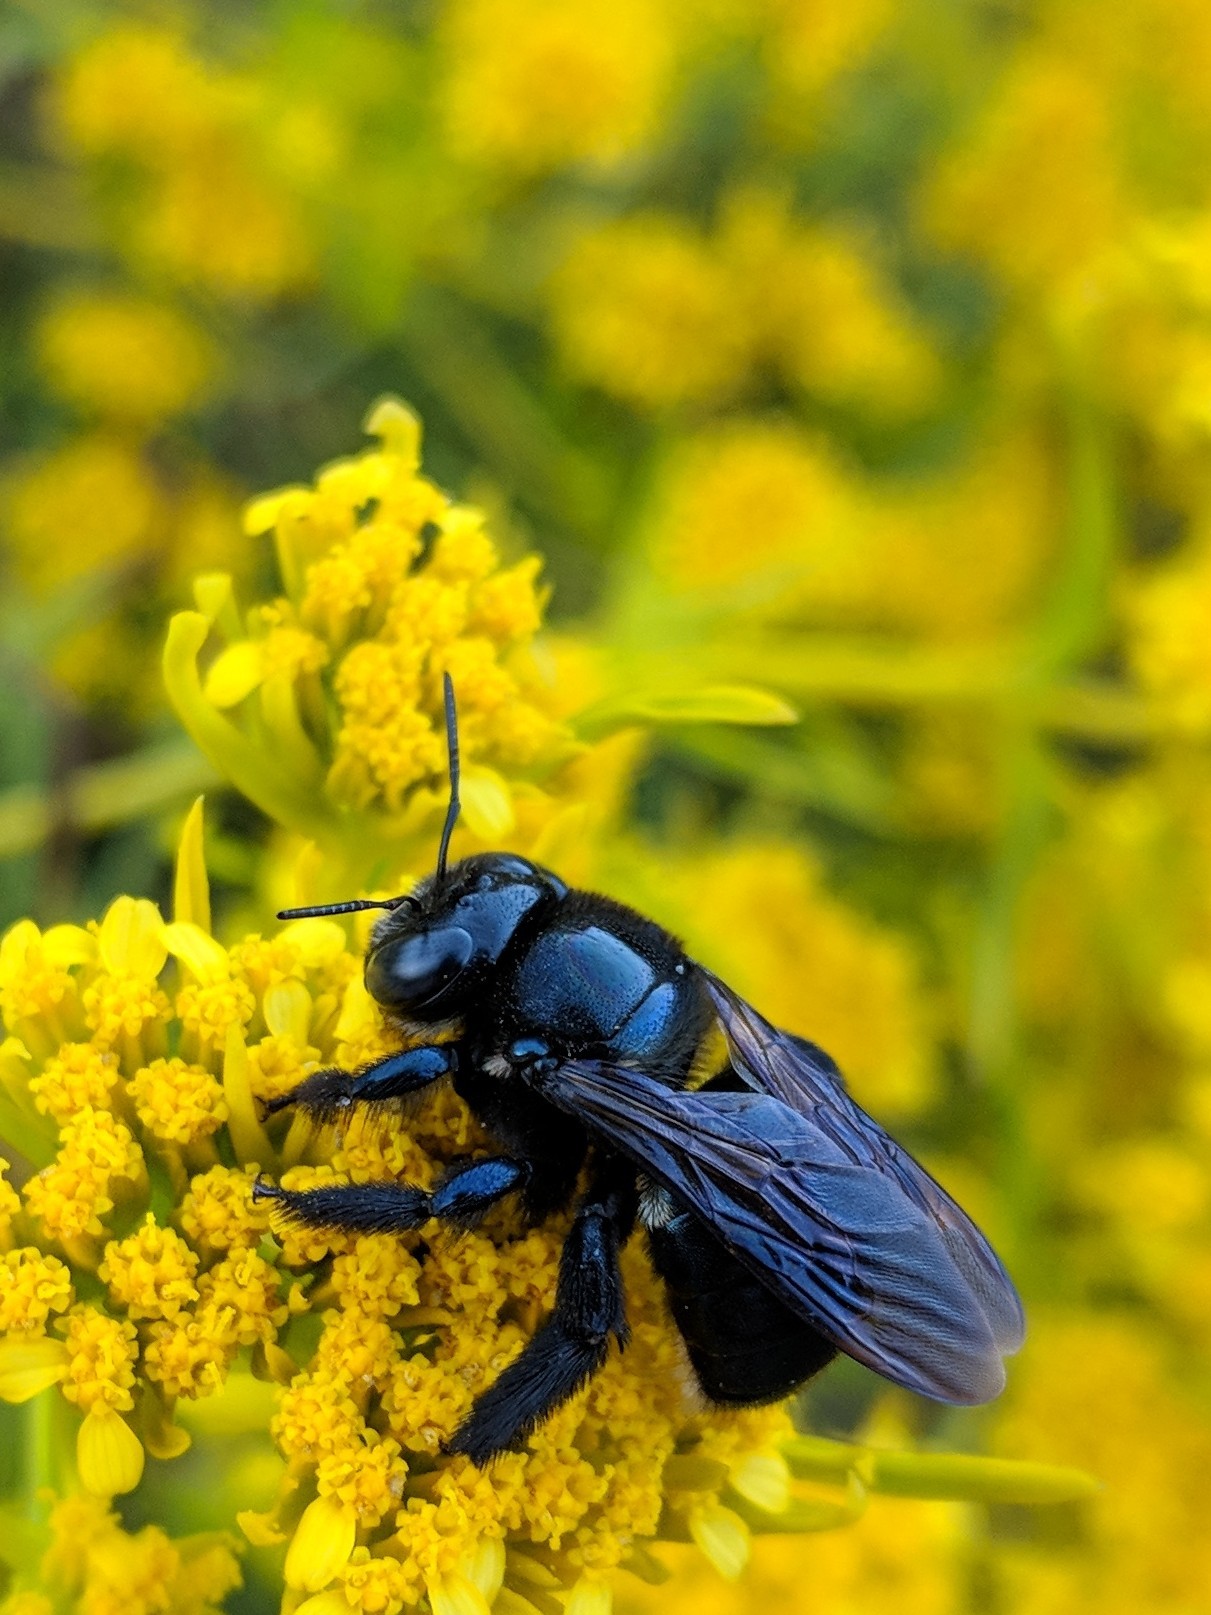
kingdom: Animalia
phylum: Arthropoda
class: Insecta
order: Hymenoptera
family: Apidae
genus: Xylocopa
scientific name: Xylocopa micans
